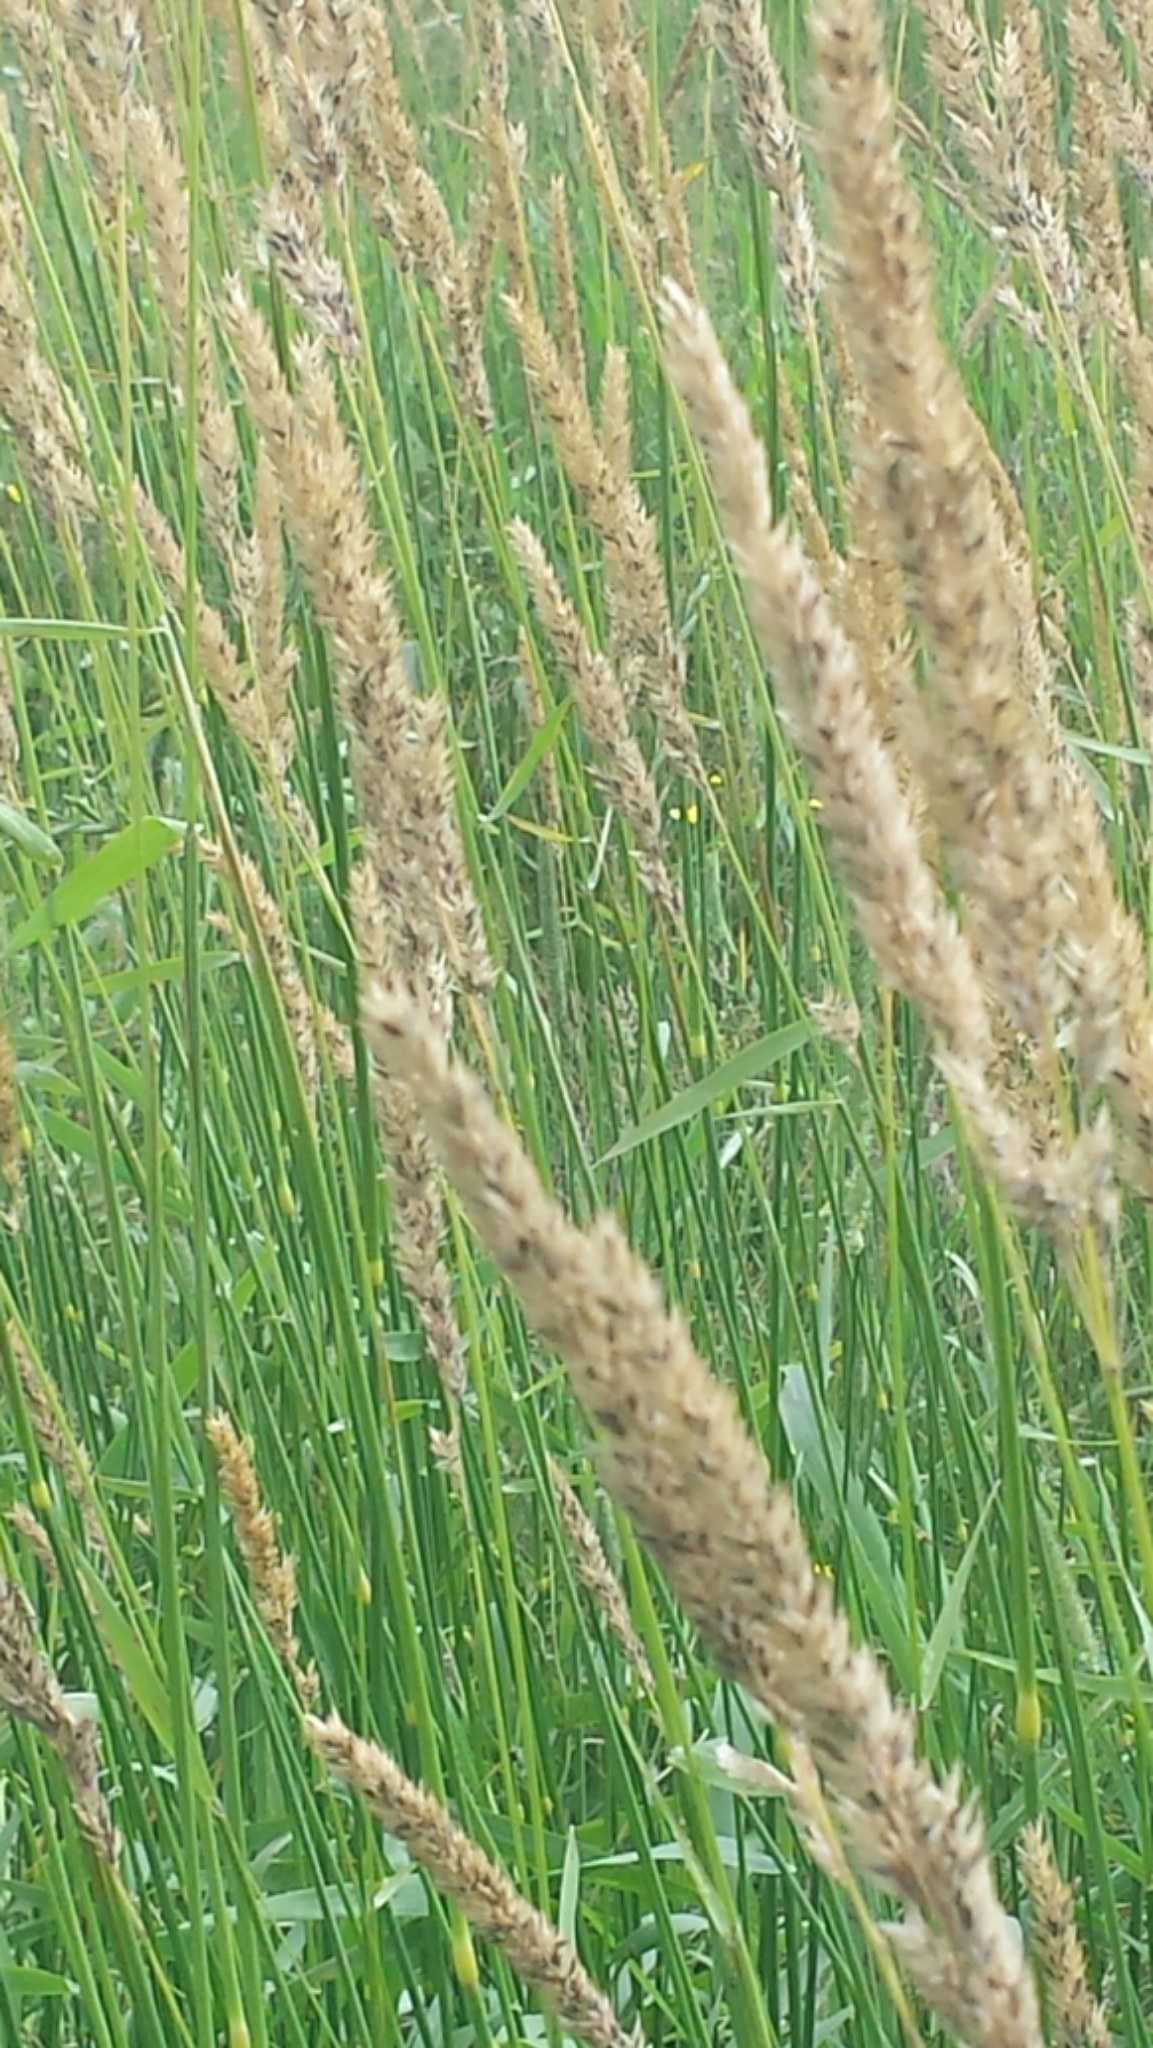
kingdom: Plantae
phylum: Tracheophyta
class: Liliopsida
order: Poales
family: Poaceae
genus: Phalaris
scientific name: Phalaris arundinacea
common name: Reed canary-grass
